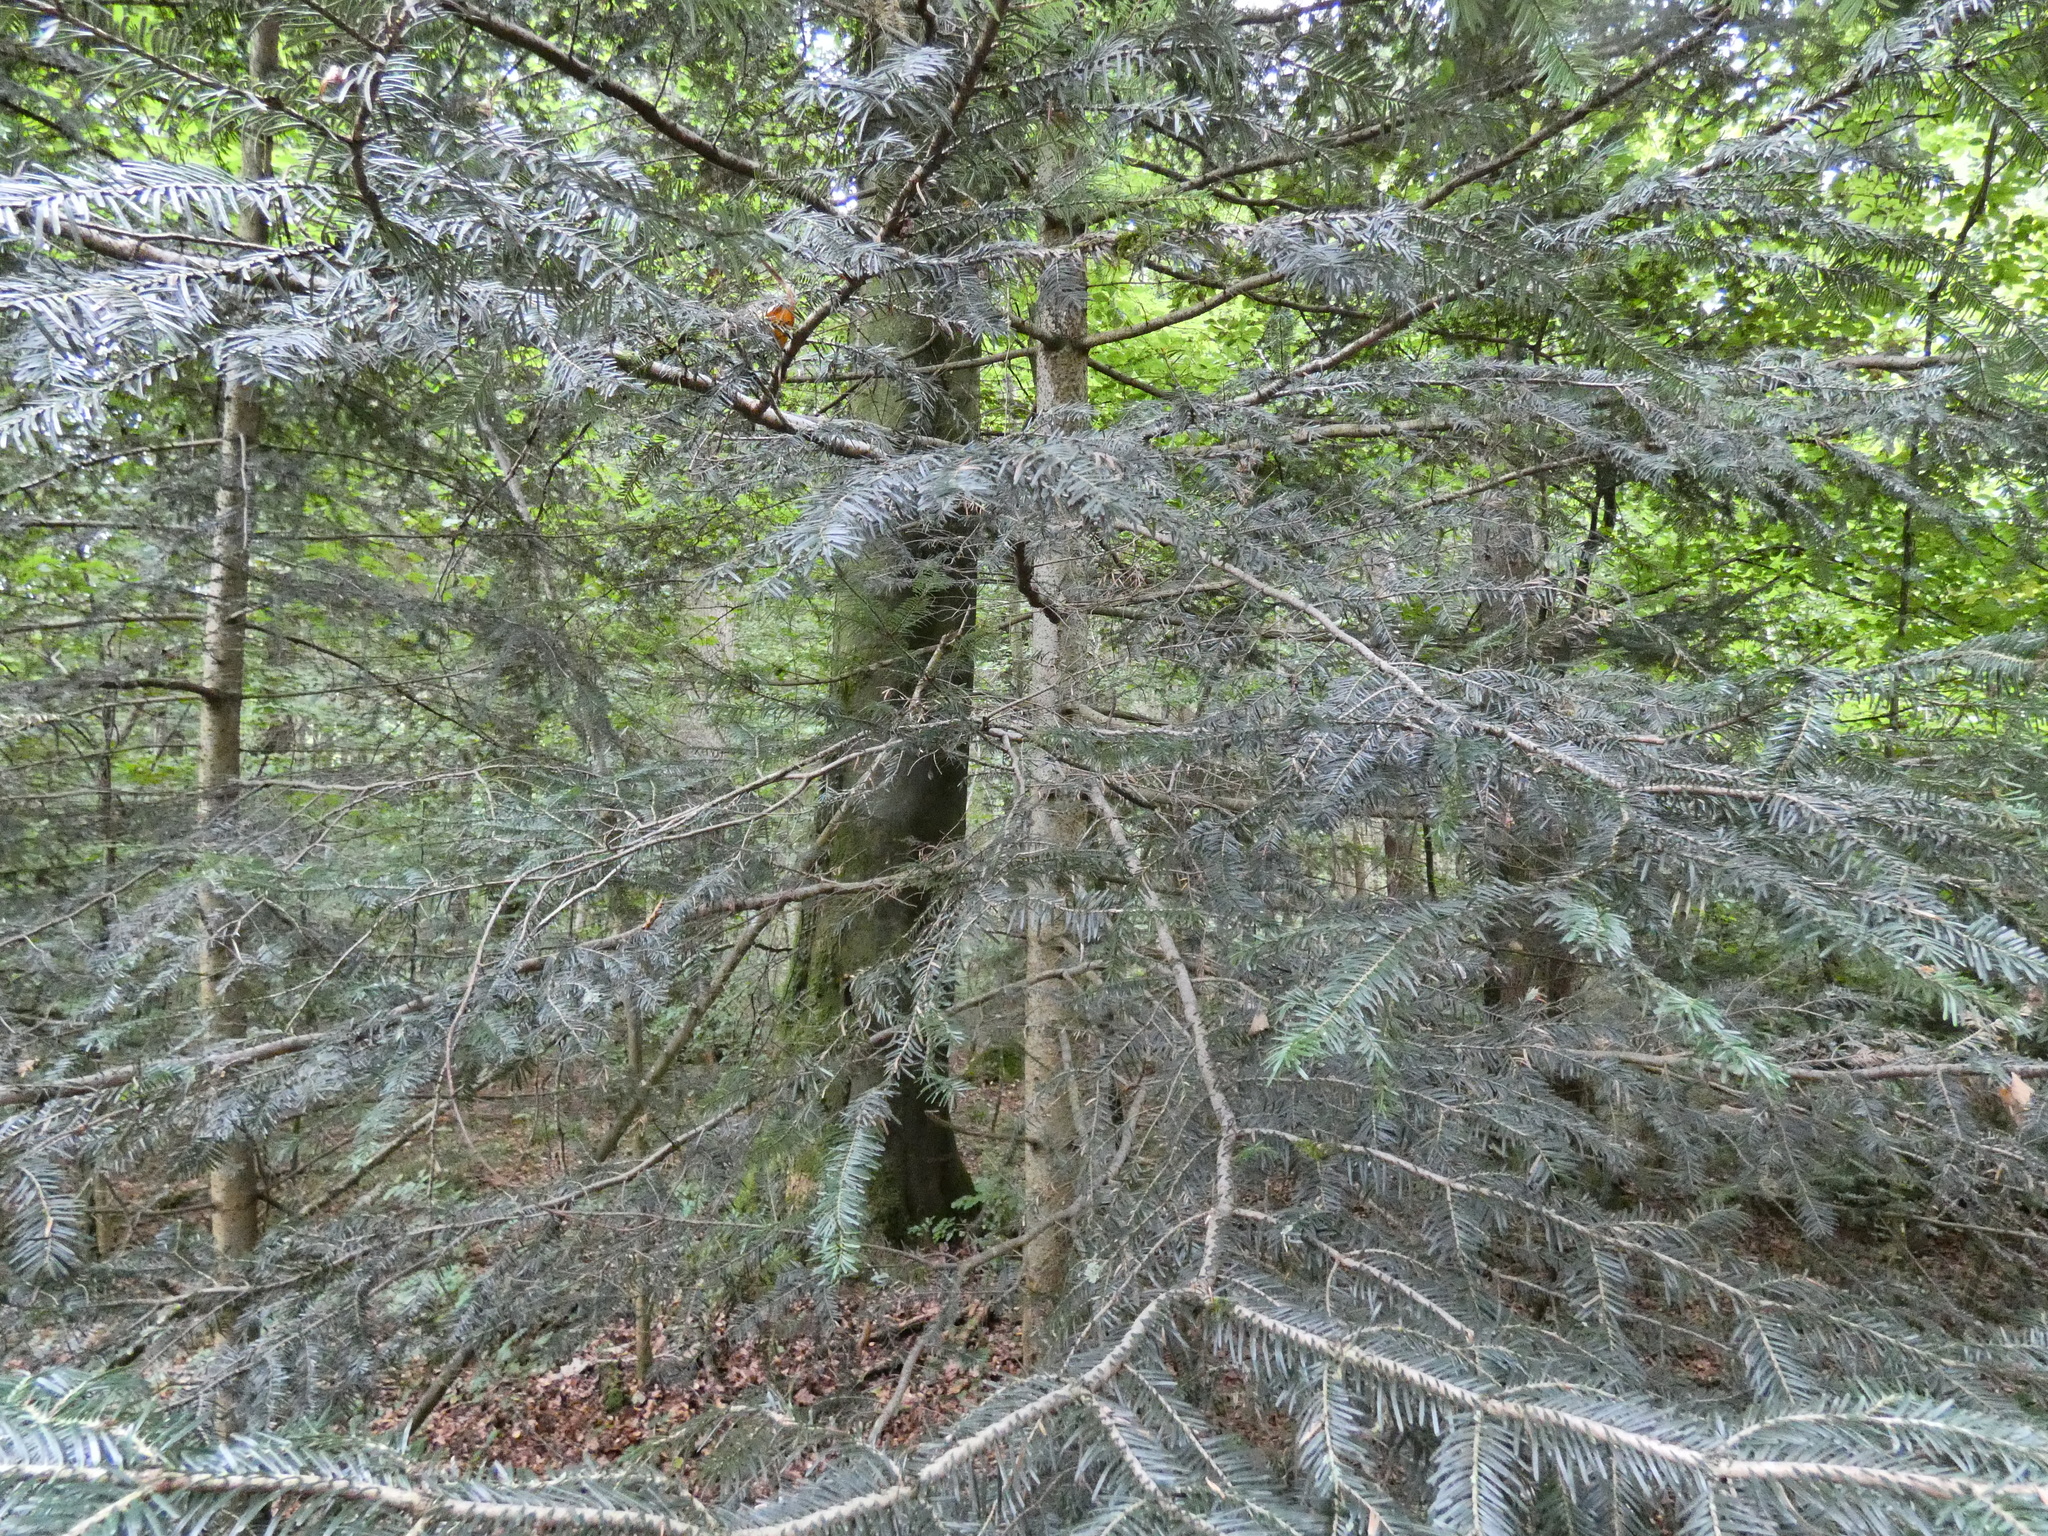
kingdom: Plantae
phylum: Tracheophyta
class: Pinopsida
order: Pinales
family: Pinaceae
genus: Abies
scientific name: Abies alba
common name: Silver fir
